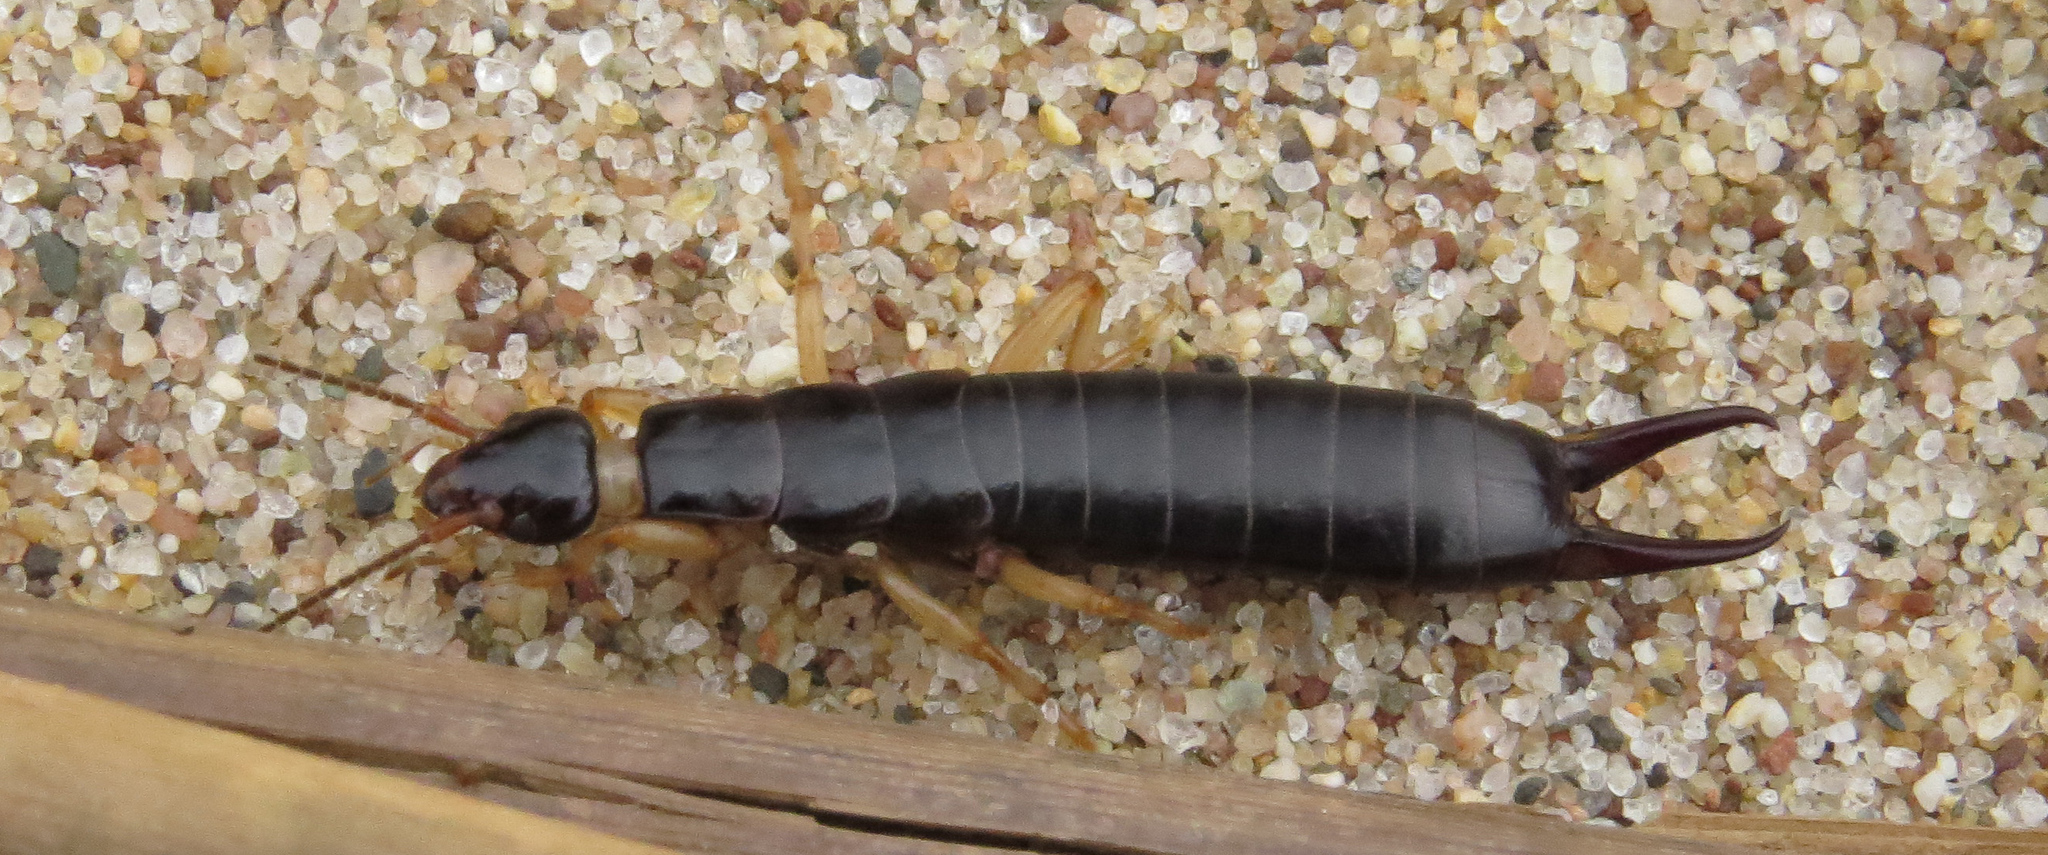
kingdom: Animalia
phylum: Arthropoda
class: Insecta
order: Dermaptera
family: Anisolabididae
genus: Anisolabis
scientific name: Anisolabis maritima
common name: Maritime earwig
